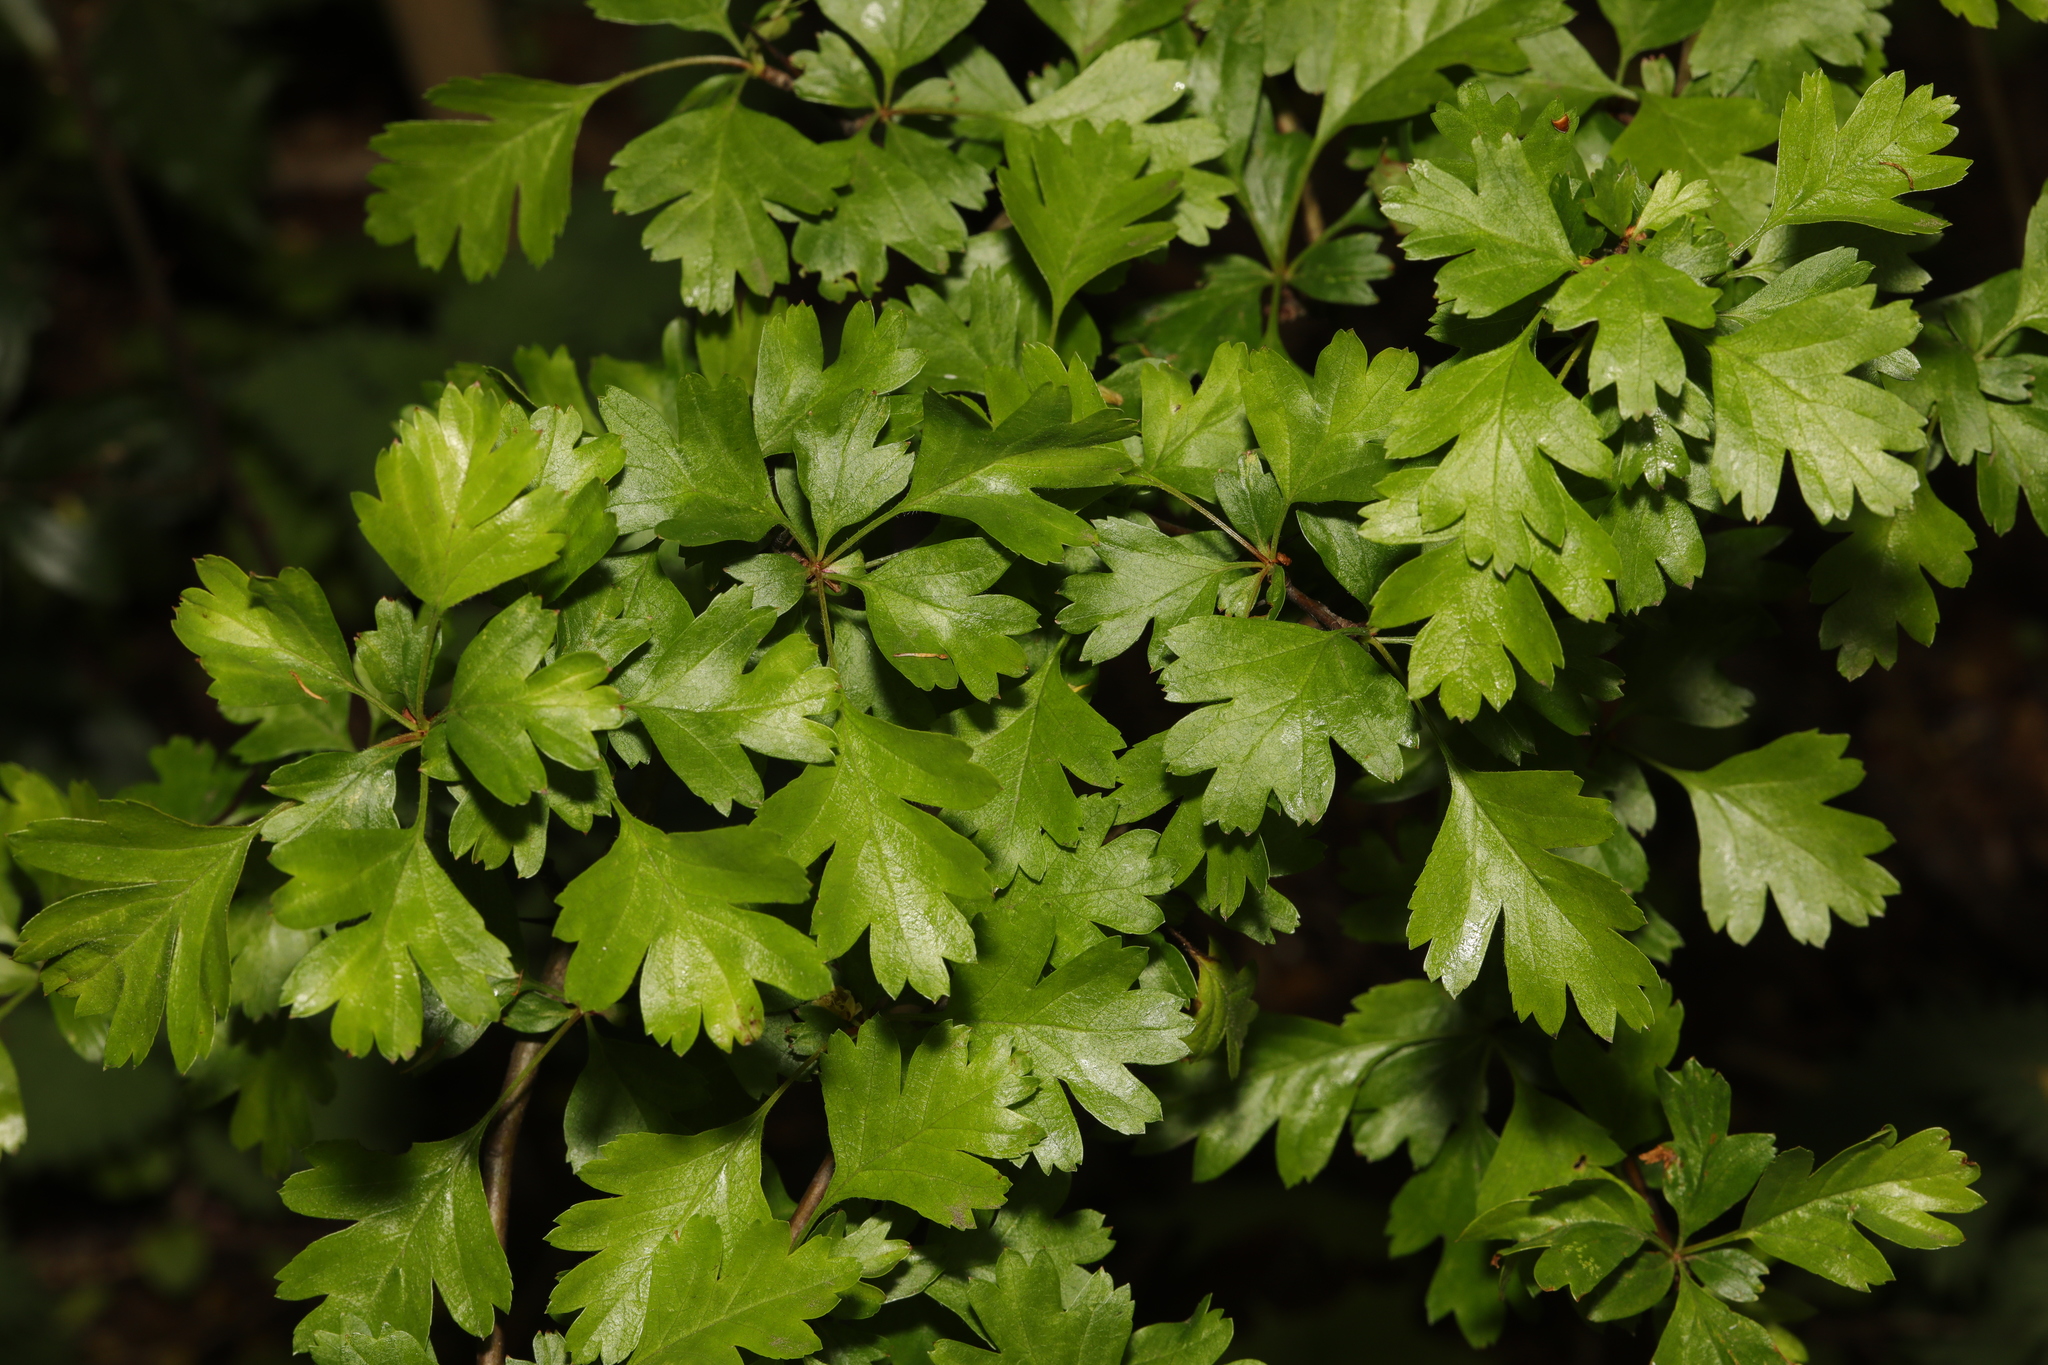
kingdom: Plantae
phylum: Tracheophyta
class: Magnoliopsida
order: Rosales
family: Rosaceae
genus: Crataegus
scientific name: Crataegus monogyna
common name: Hawthorn
